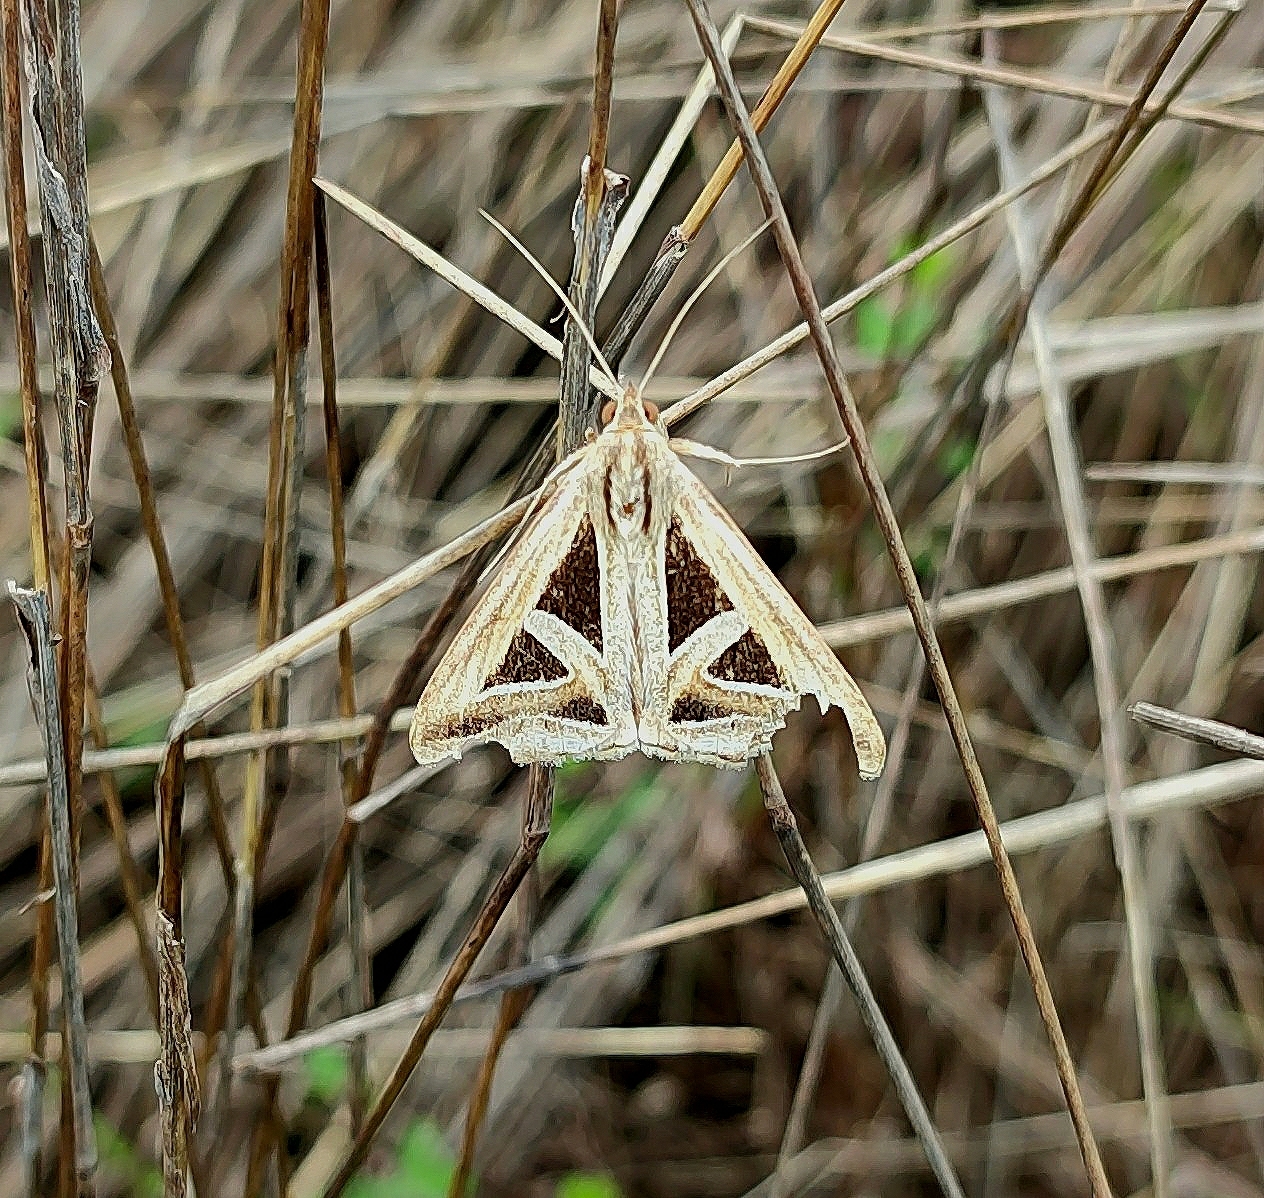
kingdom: Animalia
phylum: Arthropoda
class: Insecta
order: Lepidoptera
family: Erebidae
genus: Trigonodes
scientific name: Trigonodes hyppasia
